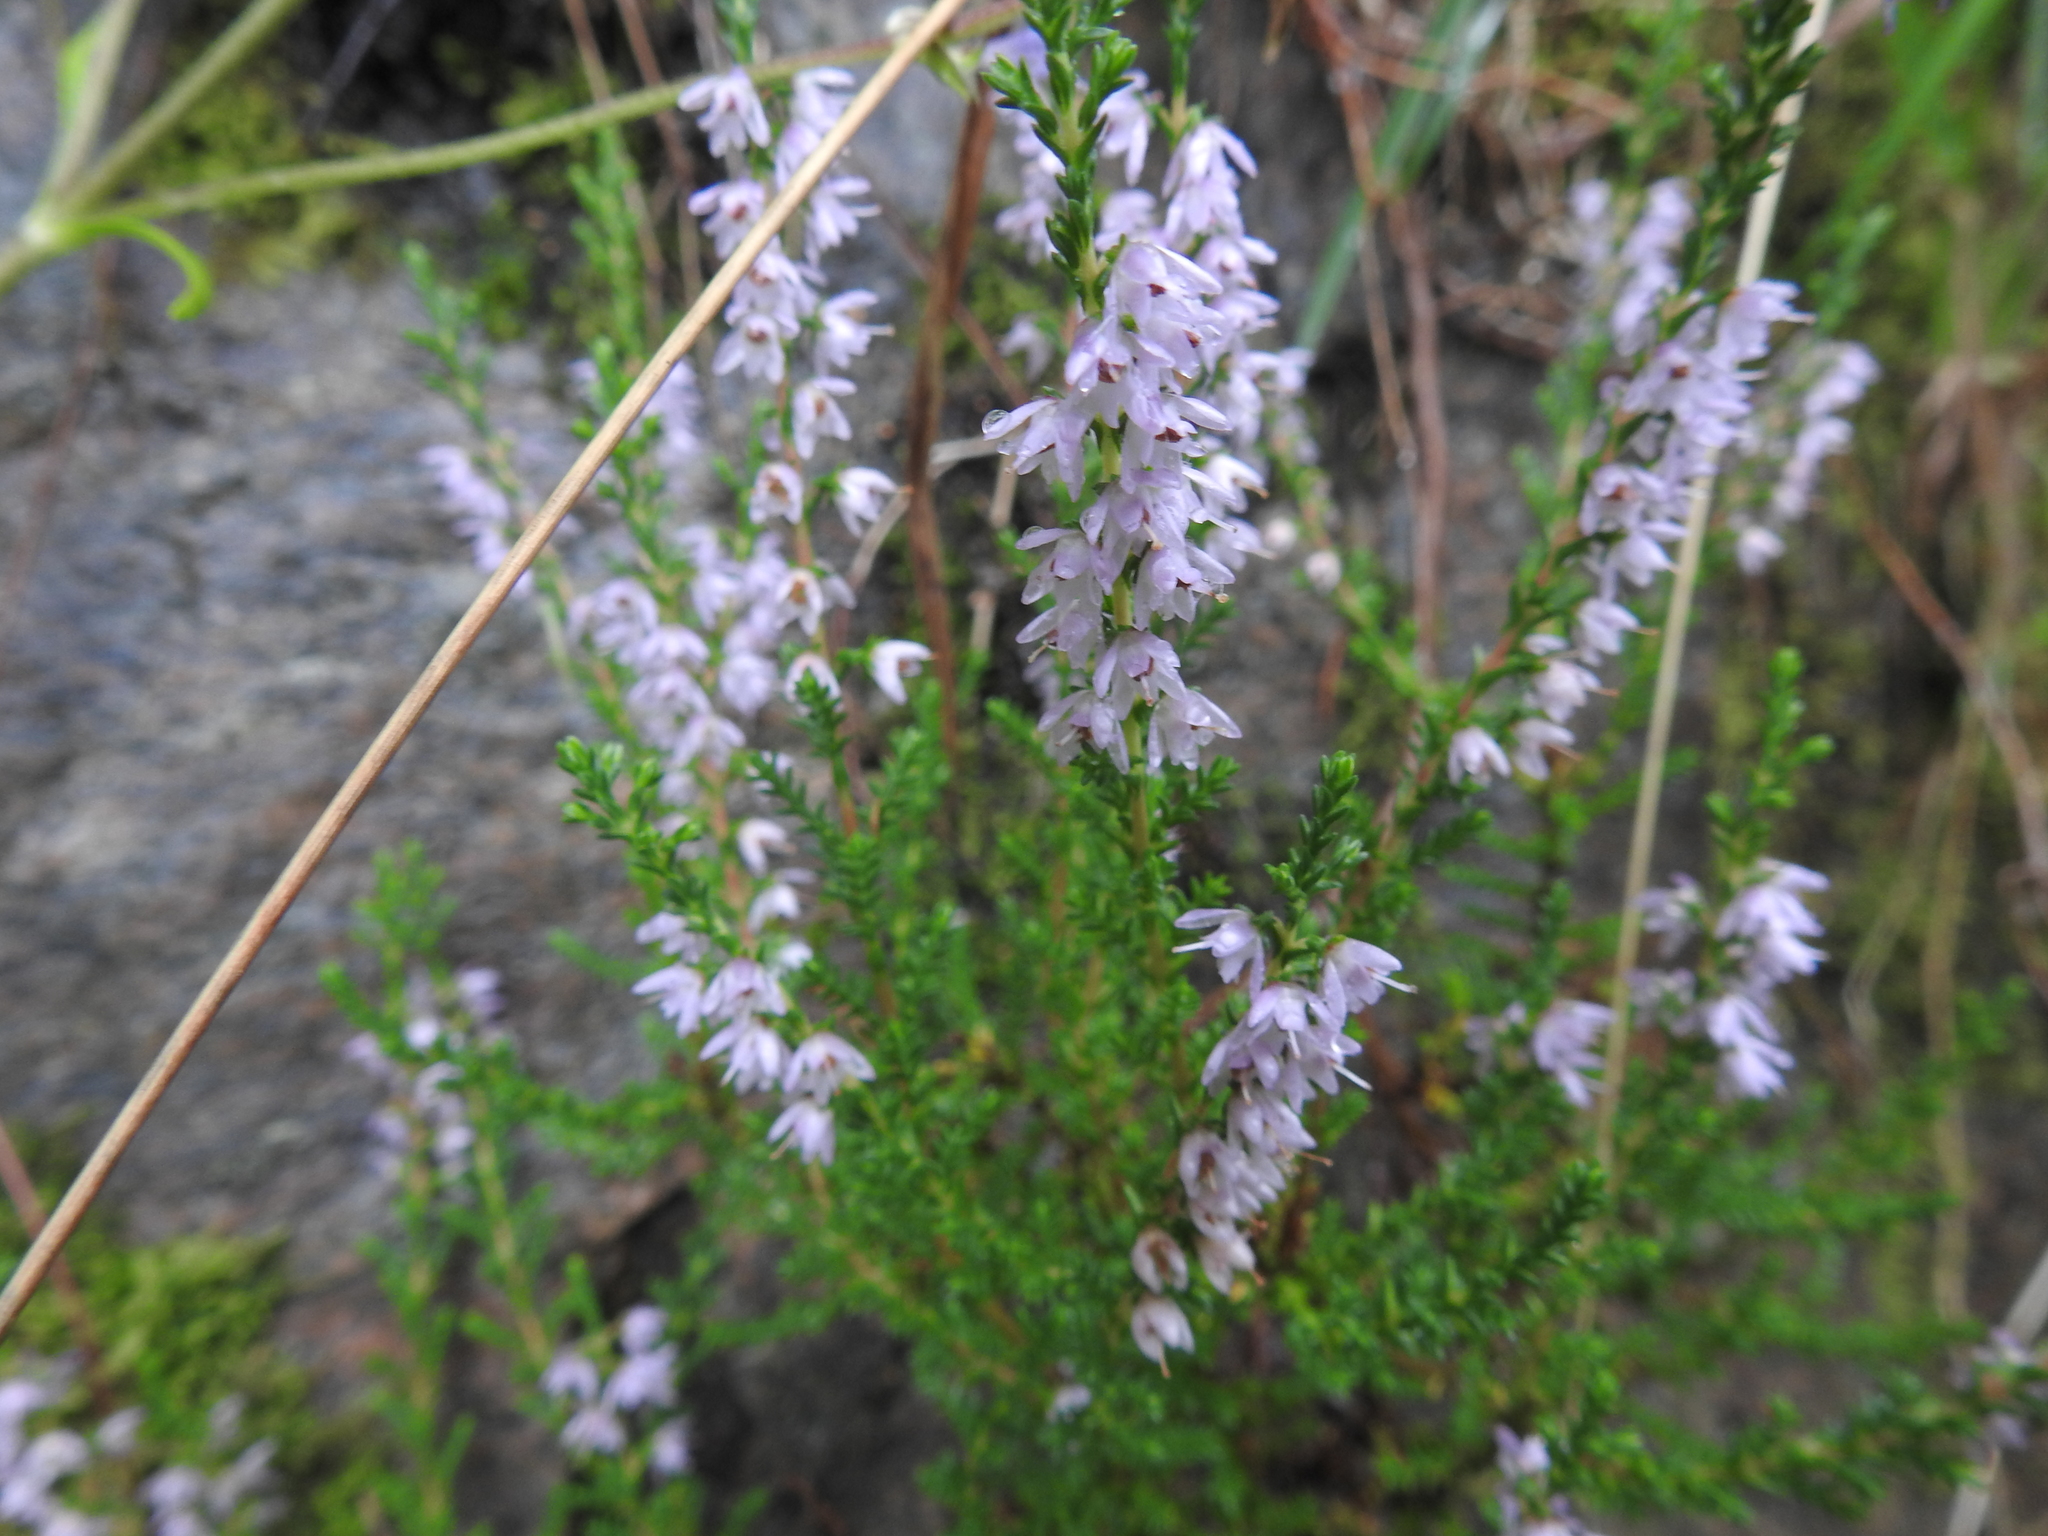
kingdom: Plantae
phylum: Tracheophyta
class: Magnoliopsida
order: Ericales
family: Ericaceae
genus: Calluna
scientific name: Calluna vulgaris
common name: Heather
